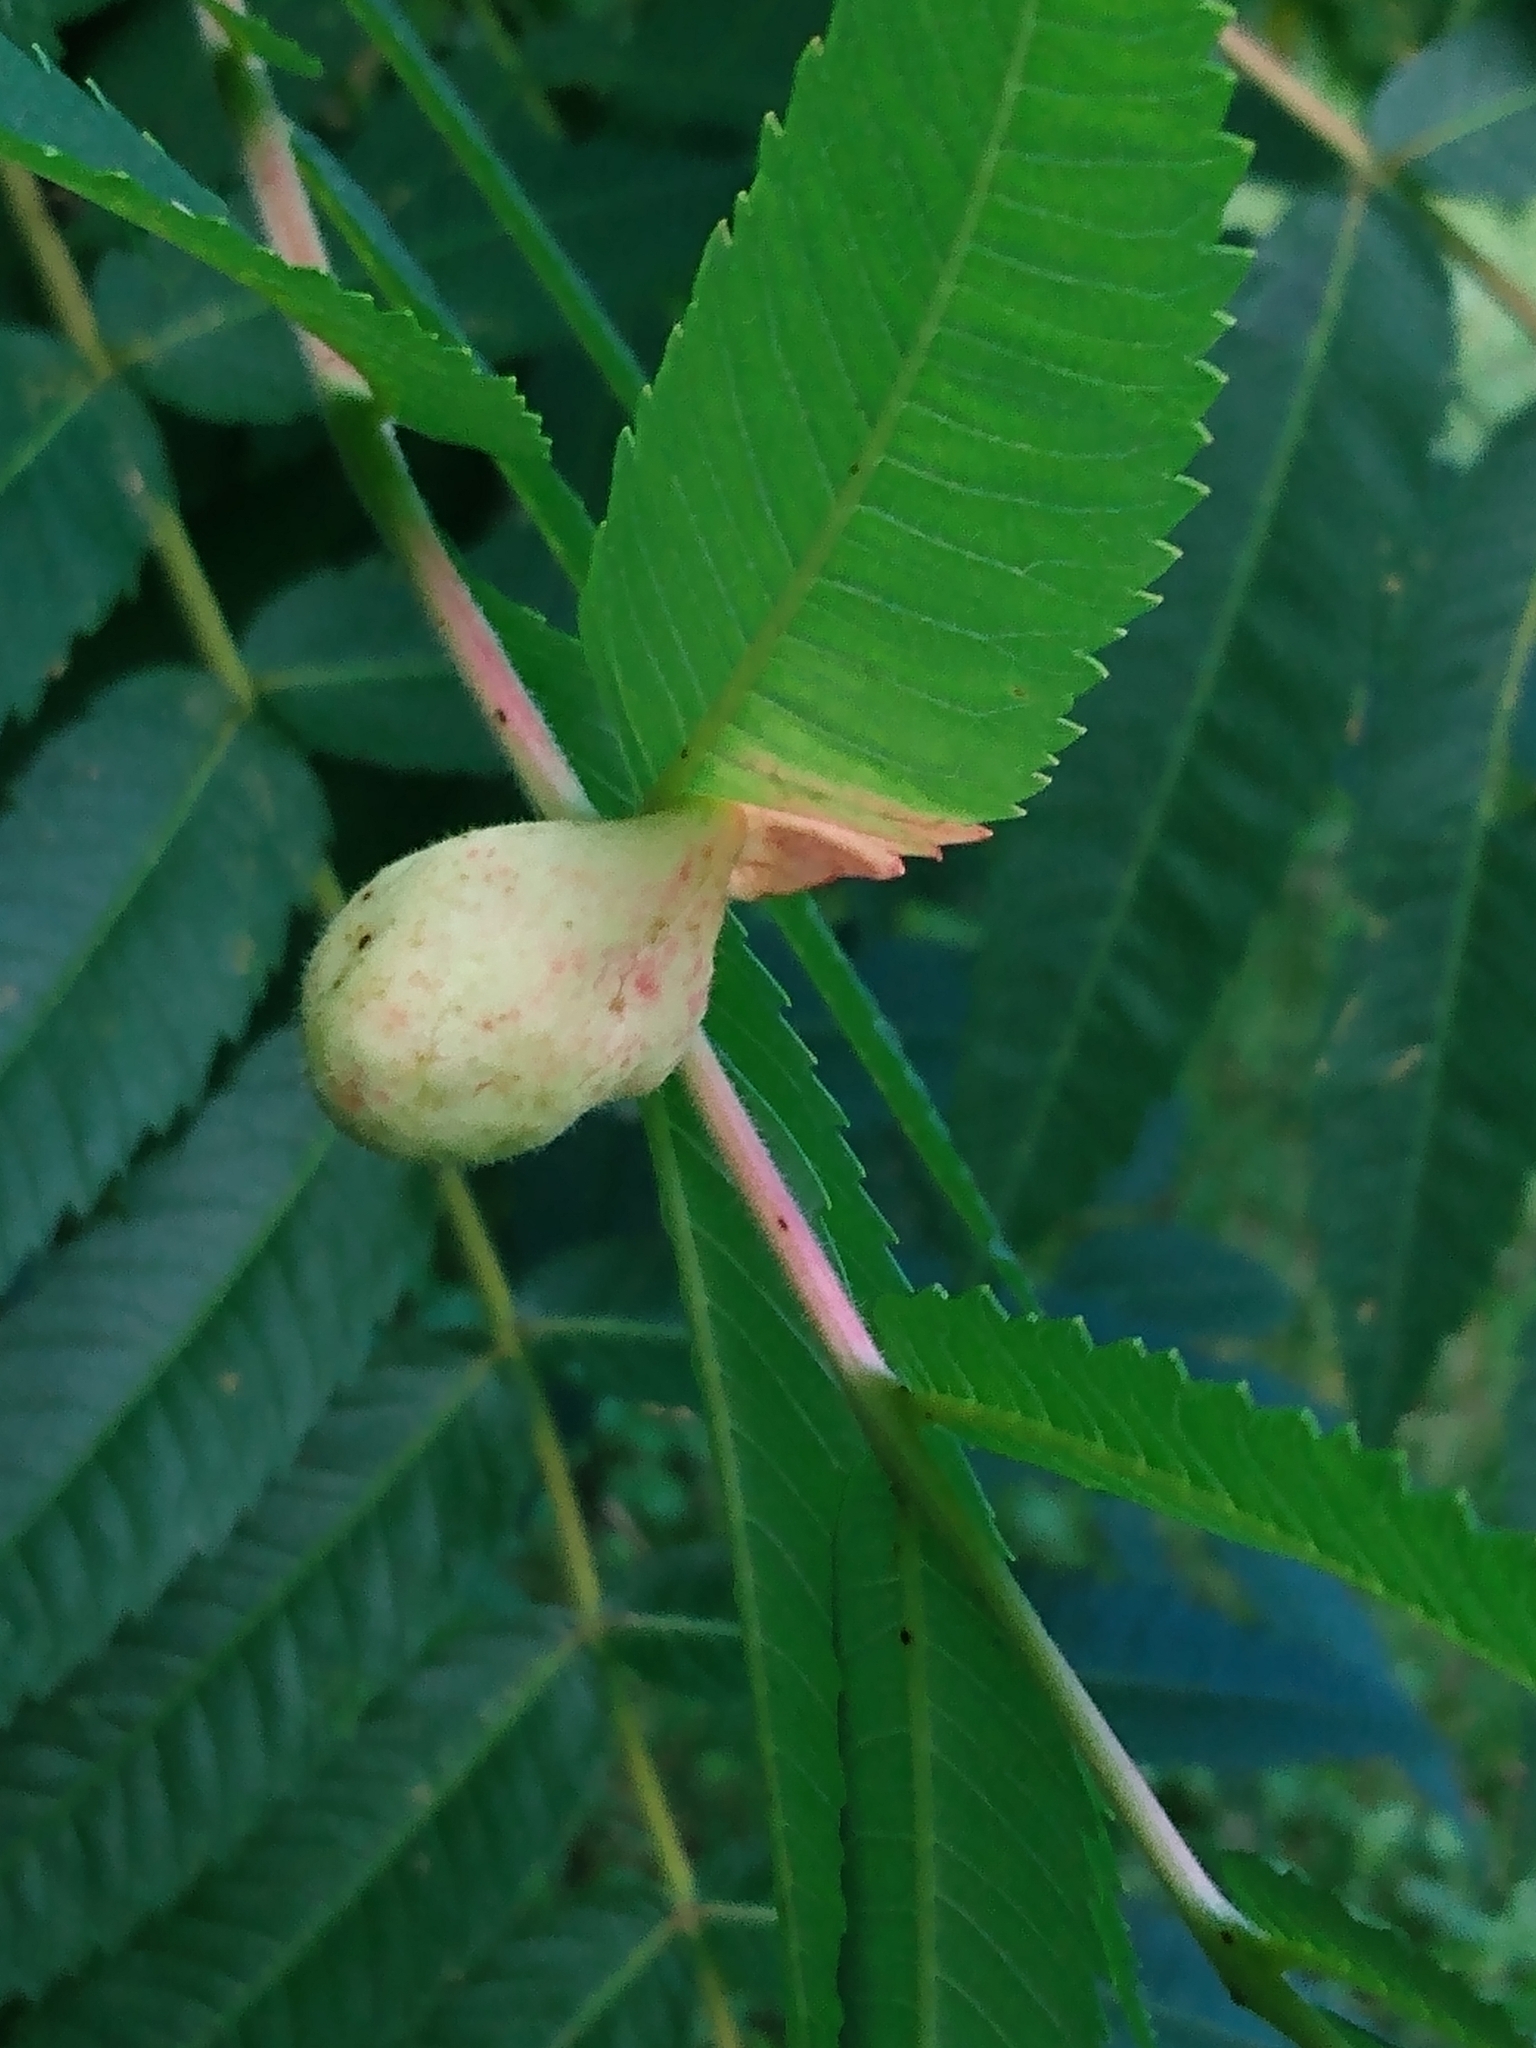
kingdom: Animalia
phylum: Arthropoda
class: Insecta
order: Hemiptera
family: Aphididae
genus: Melaphis
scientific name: Melaphis rhois
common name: Sumac gall aphid
